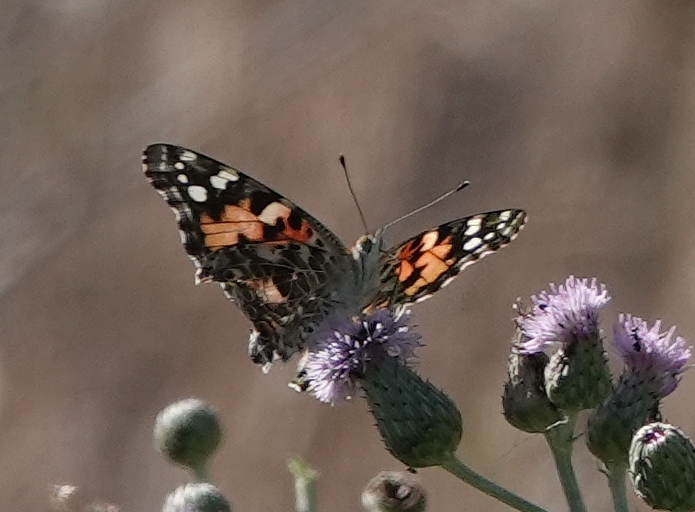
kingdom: Animalia
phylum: Arthropoda
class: Insecta
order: Lepidoptera
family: Nymphalidae
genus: Vanessa
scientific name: Vanessa cardui
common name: Painted lady
